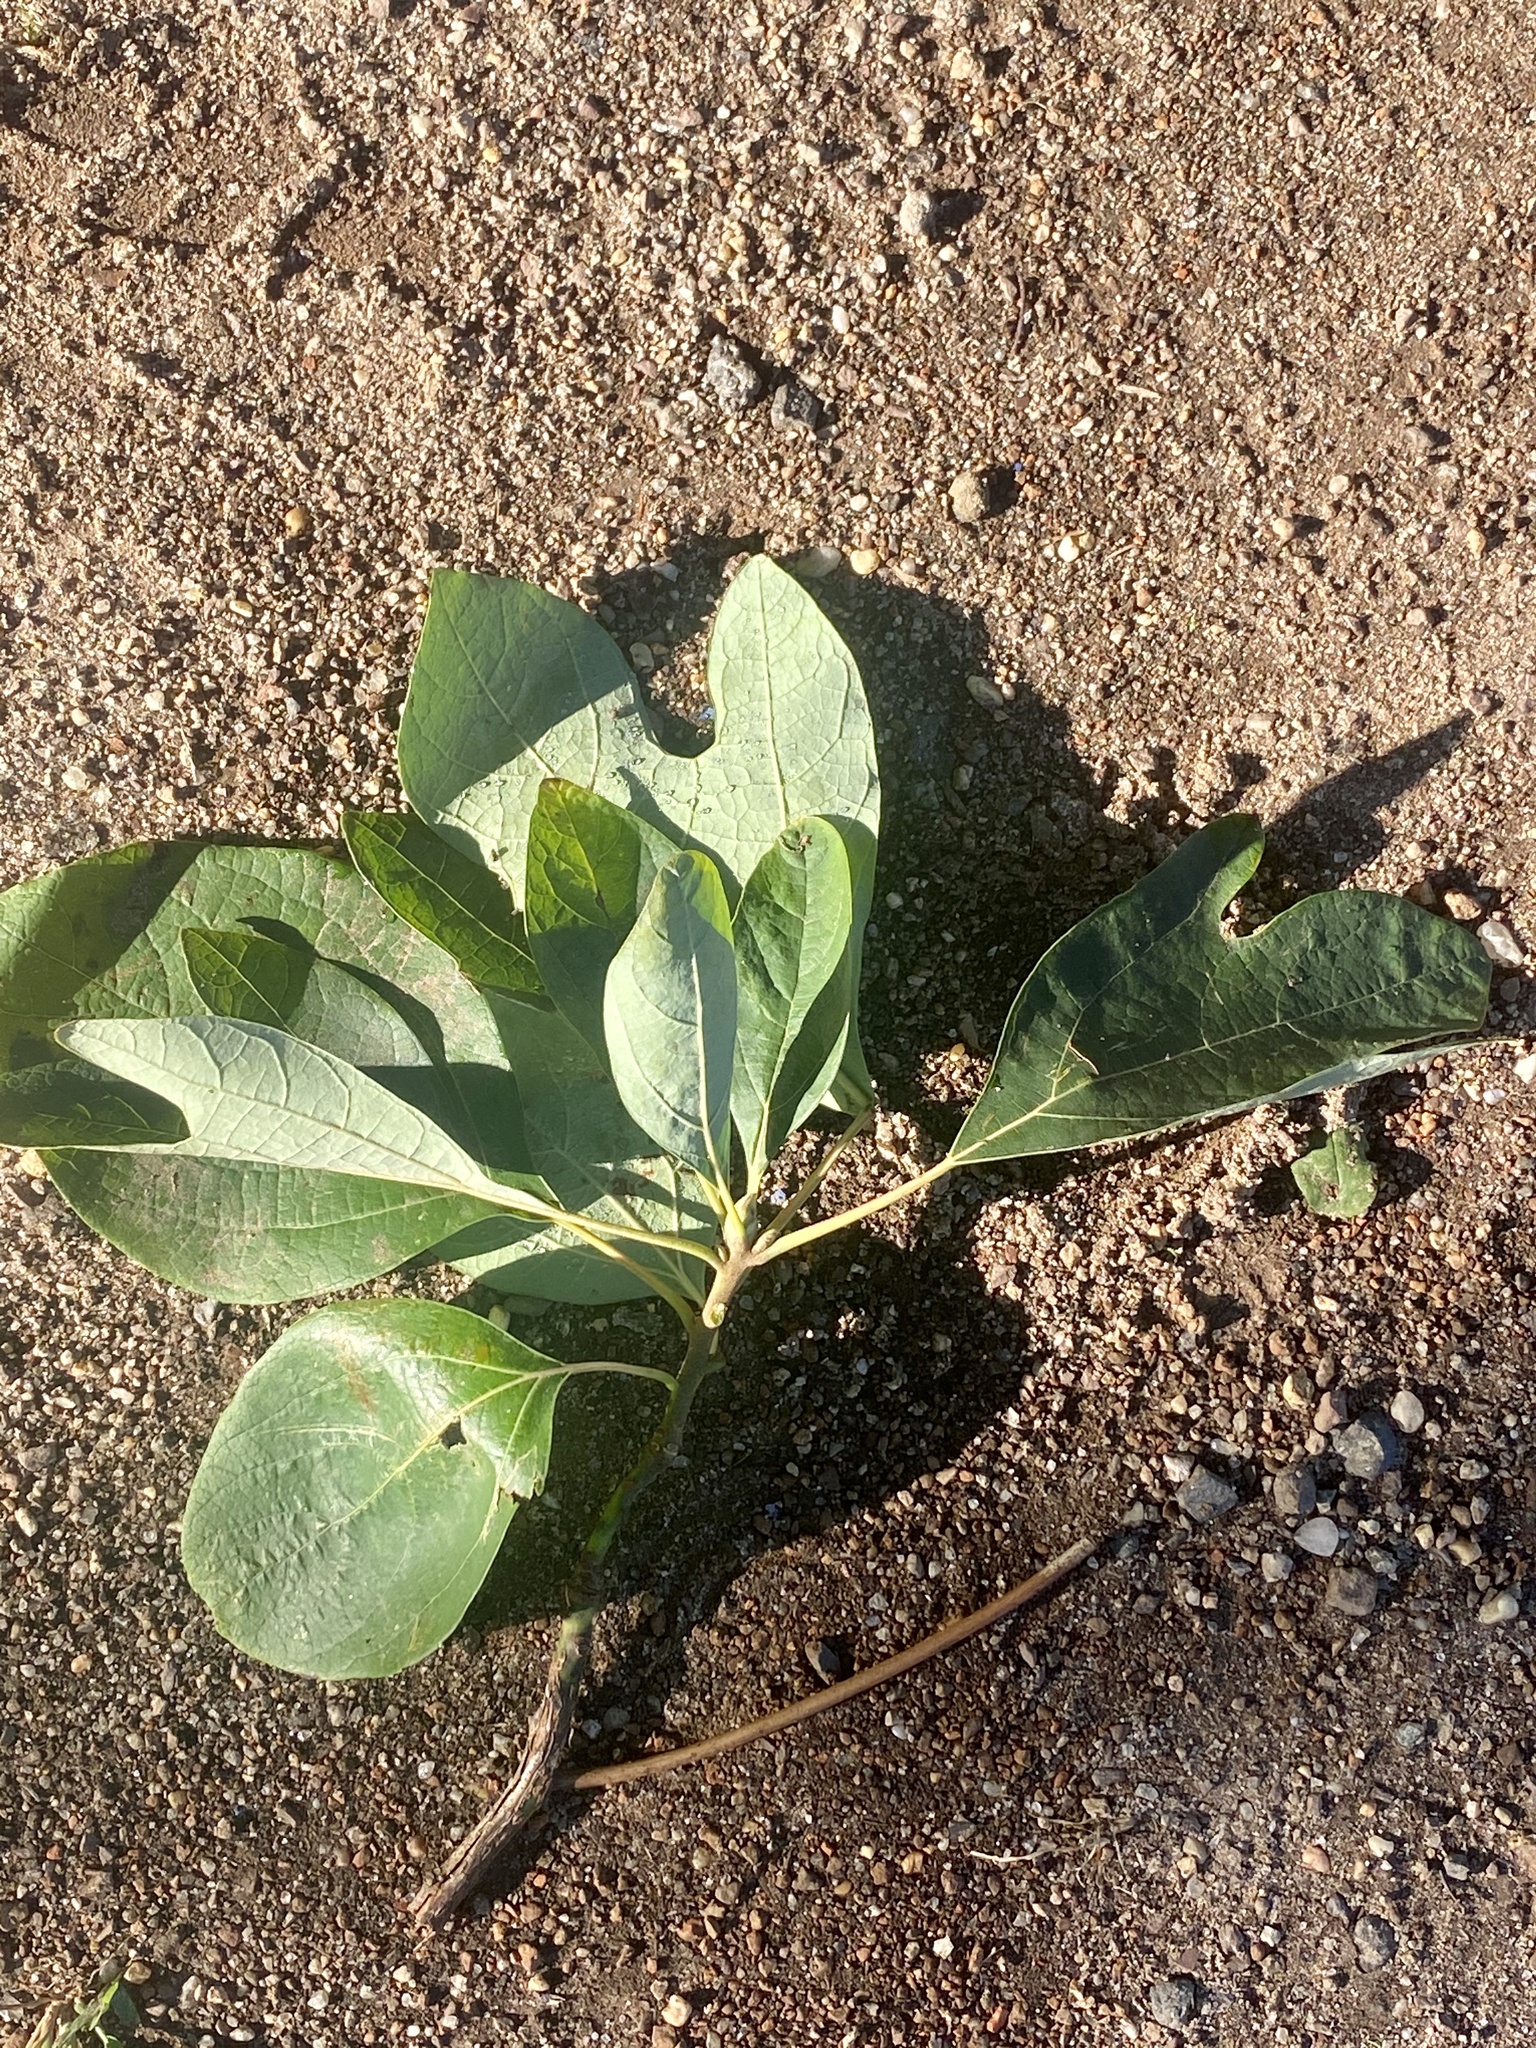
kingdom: Plantae
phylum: Tracheophyta
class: Magnoliopsida
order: Laurales
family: Lauraceae
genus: Sassafras
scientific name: Sassafras albidum
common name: Sassafras
